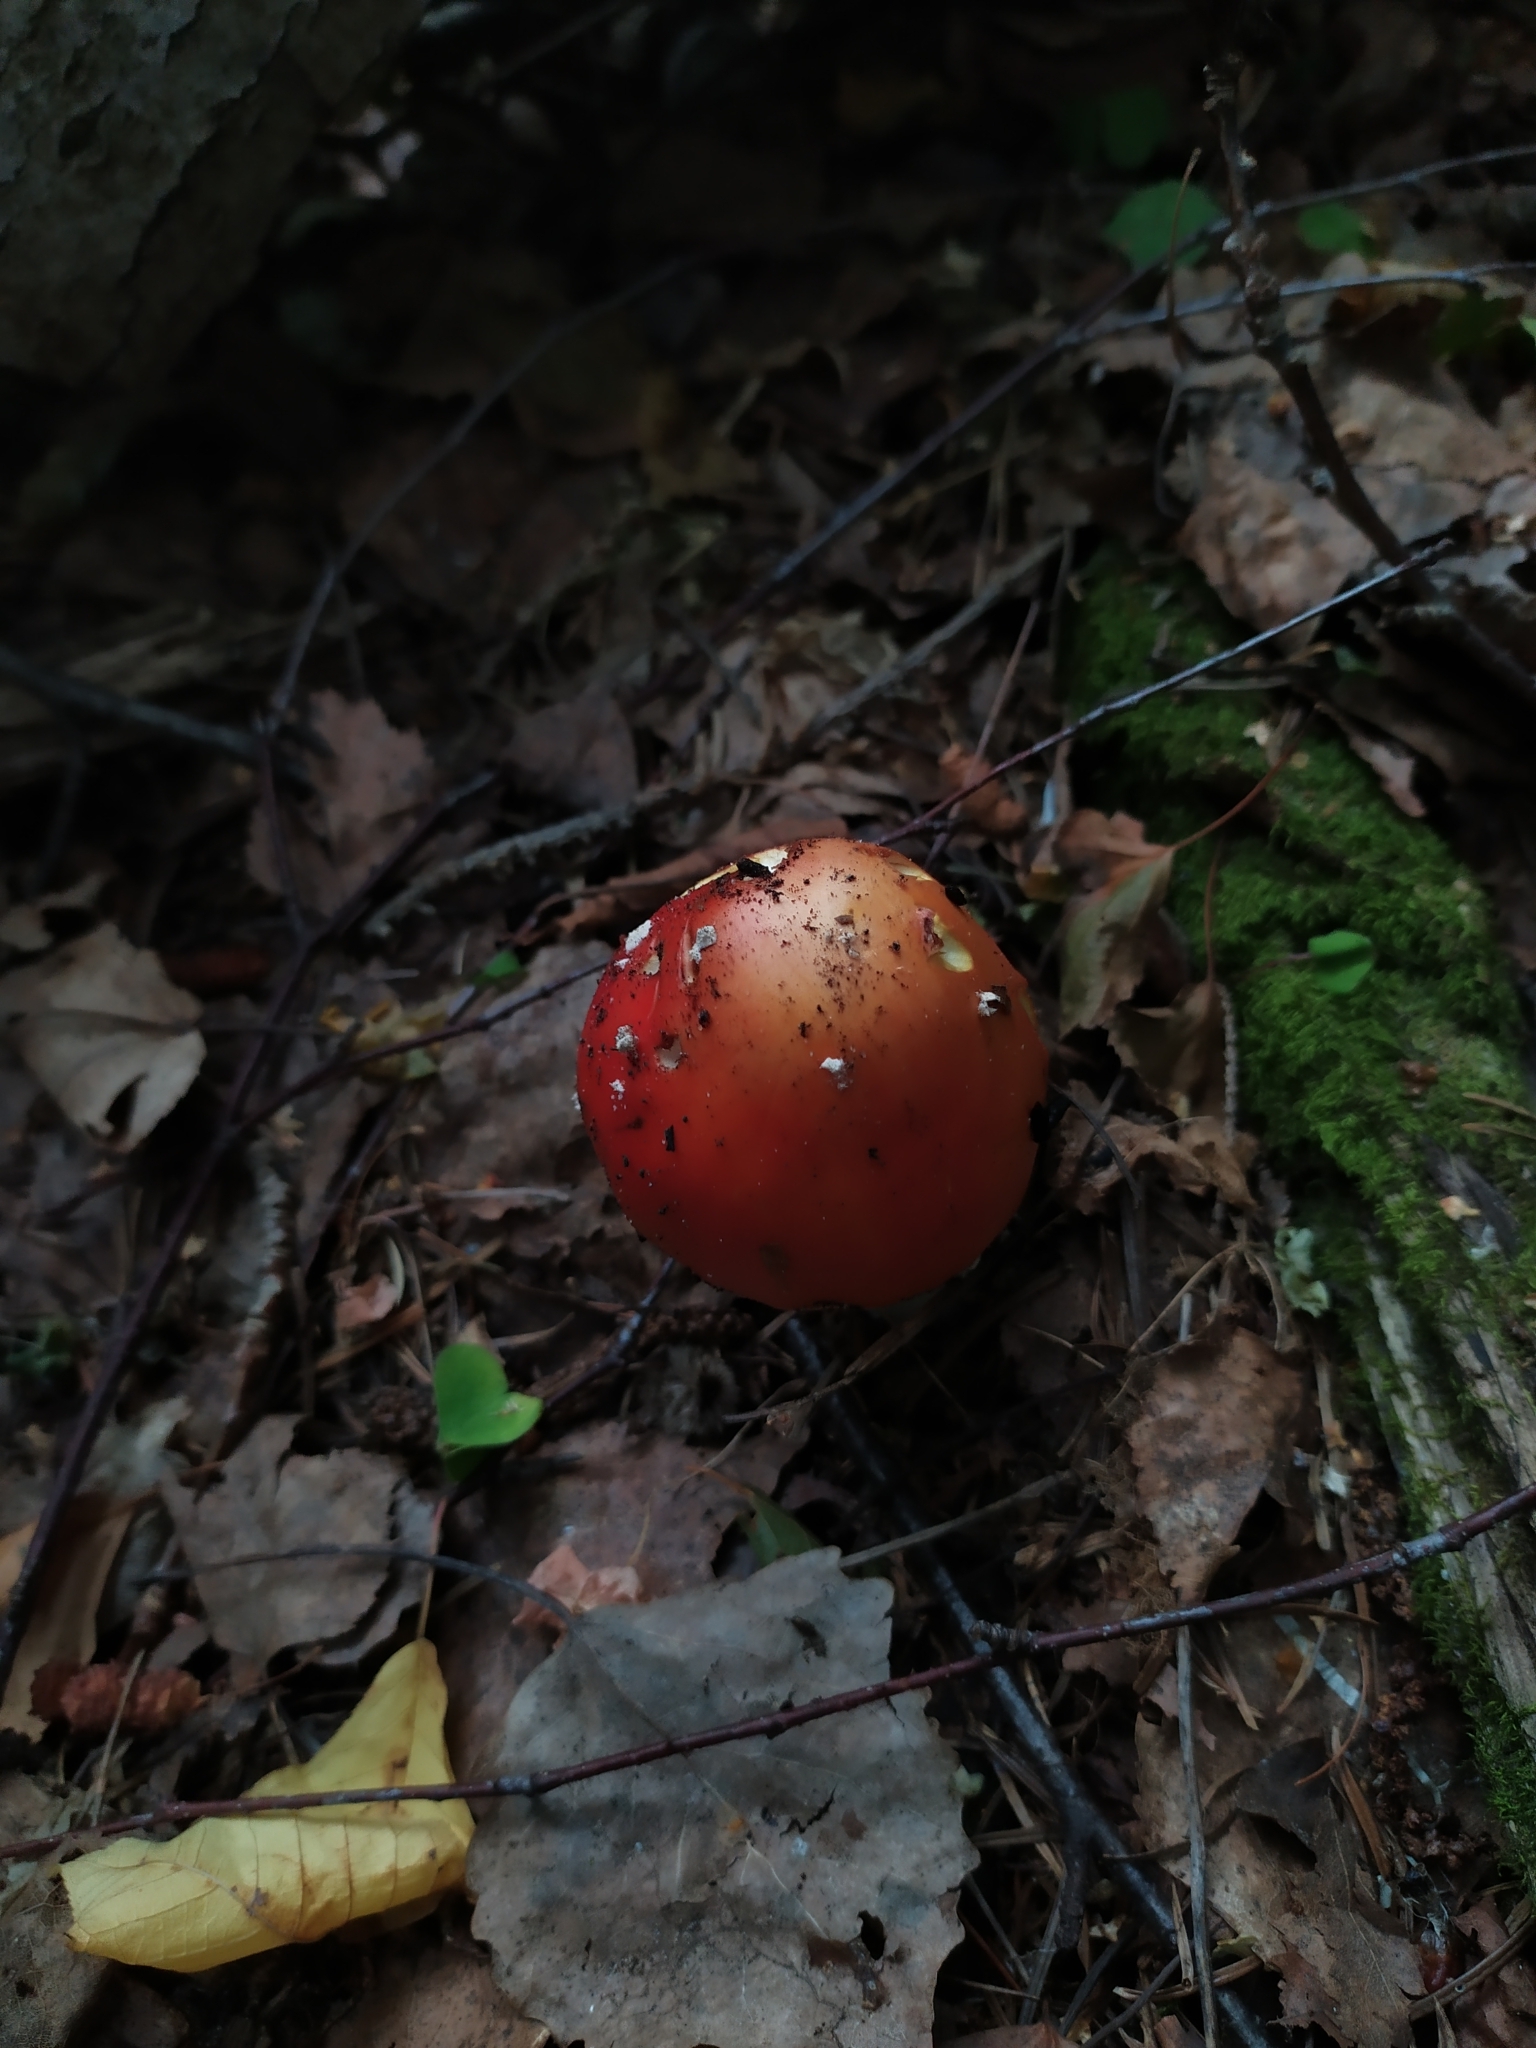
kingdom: Fungi
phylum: Basidiomycota
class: Agaricomycetes
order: Agaricales
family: Amanitaceae
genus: Amanita
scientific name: Amanita muscaria
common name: Fly agaric
